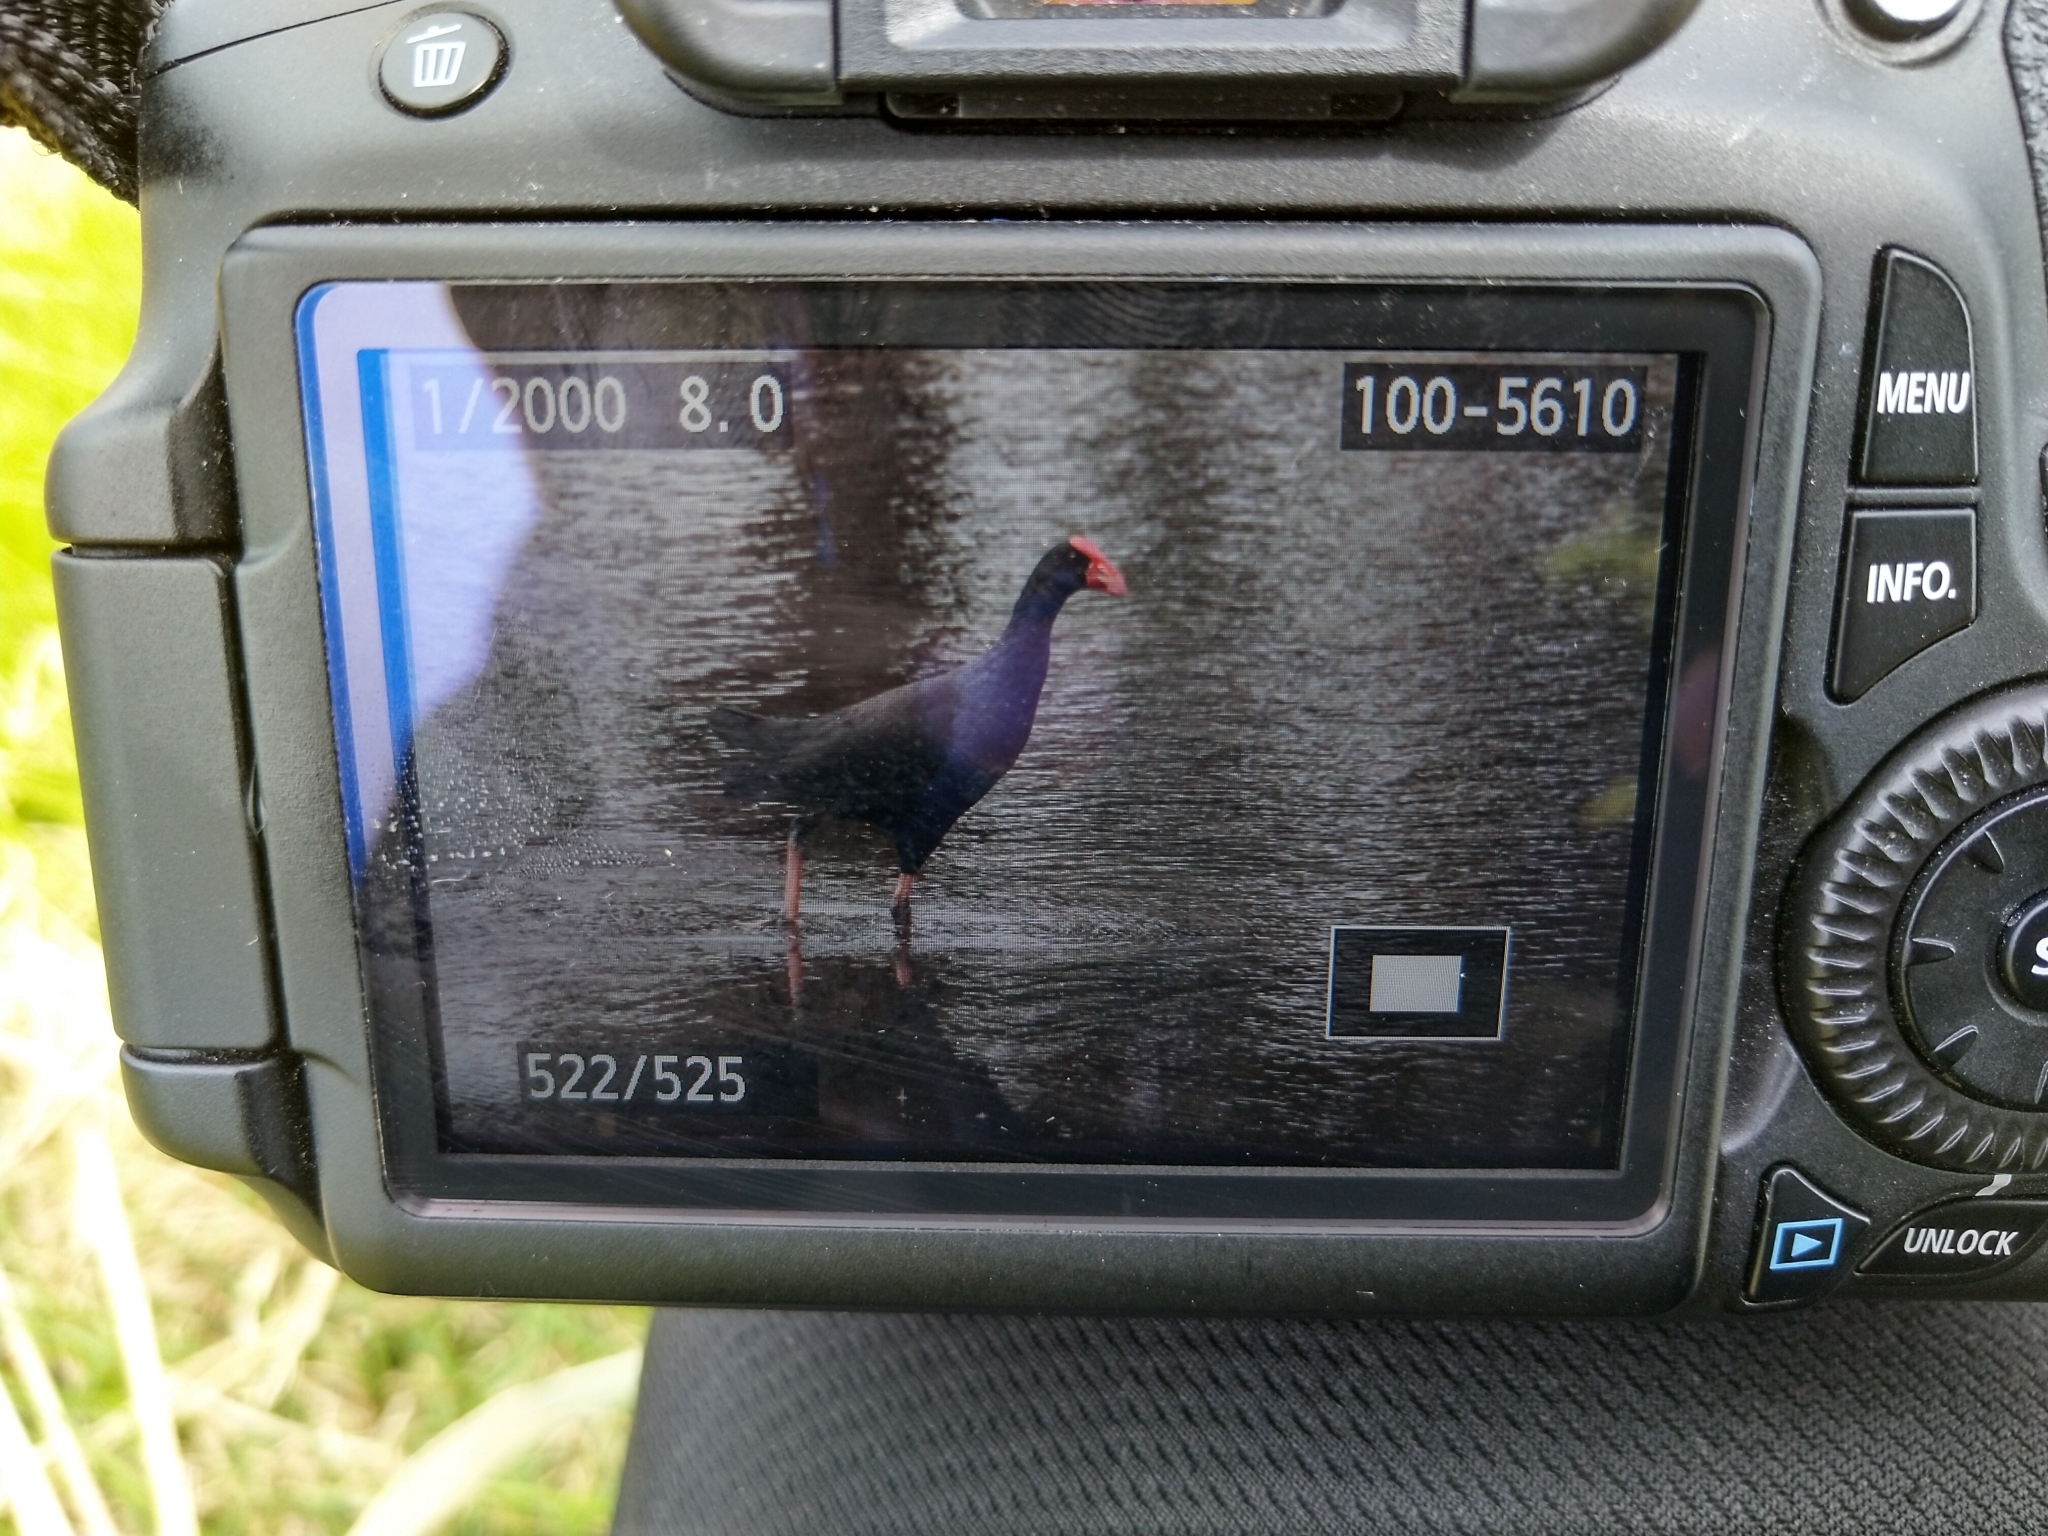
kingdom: Animalia
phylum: Chordata
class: Aves
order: Gruiformes
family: Rallidae
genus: Porphyrio
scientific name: Porphyrio melanotus
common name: Australasian swamphen
